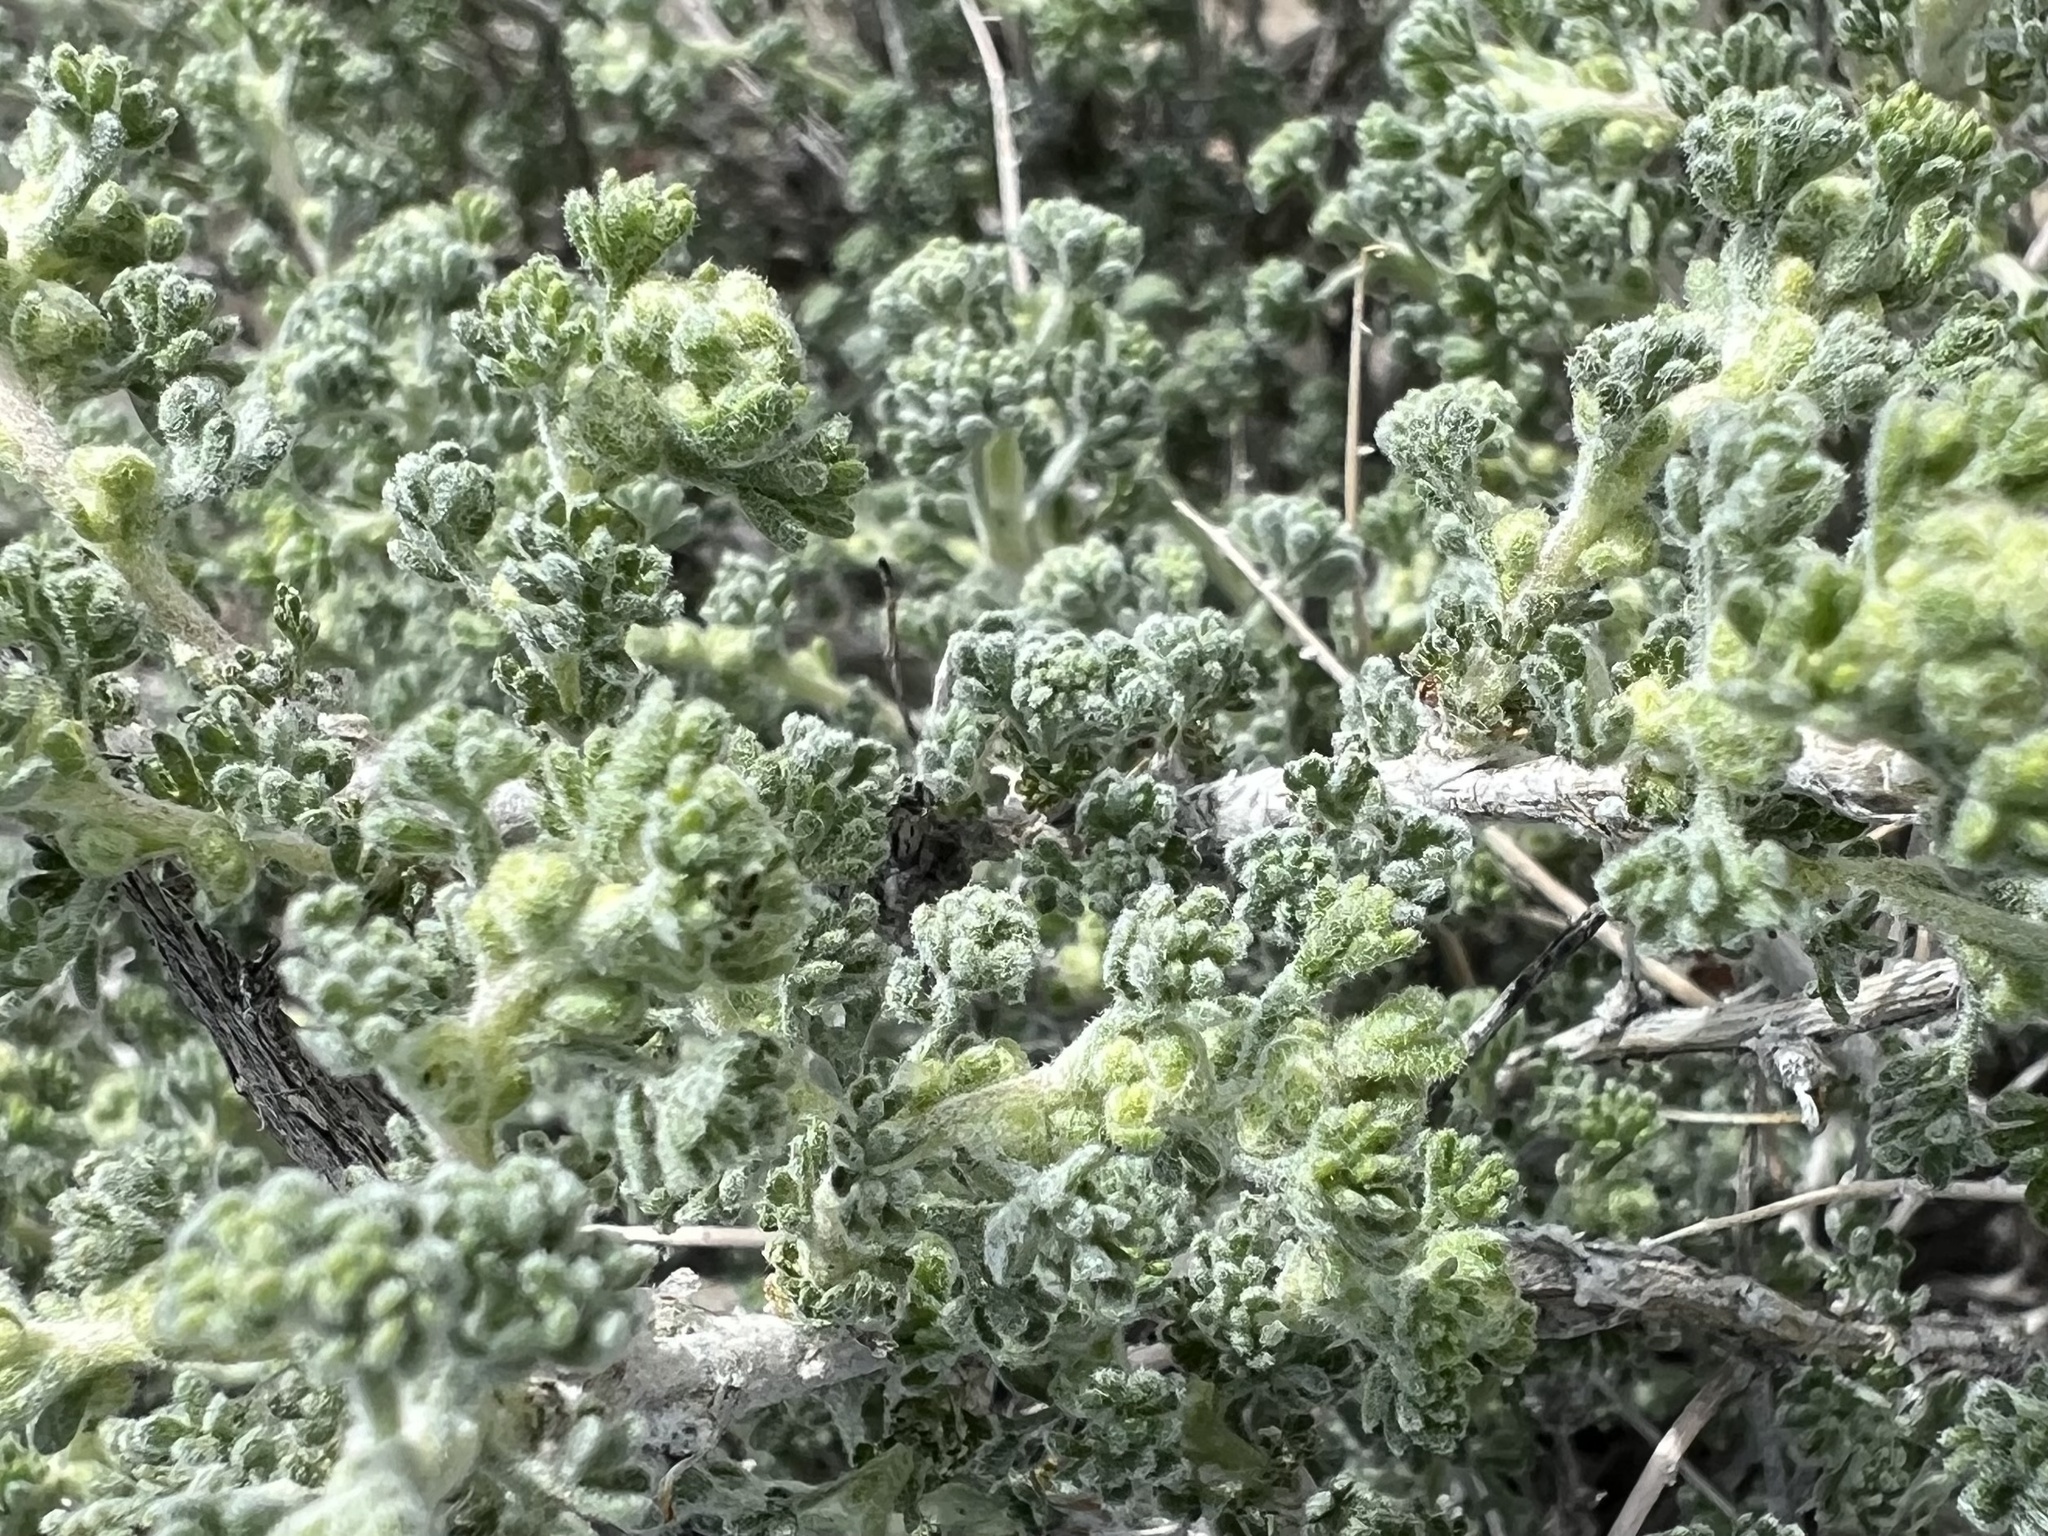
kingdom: Plantae
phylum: Tracheophyta
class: Magnoliopsida
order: Asterales
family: Asteraceae
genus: Artemisia
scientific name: Artemisia spinescens
